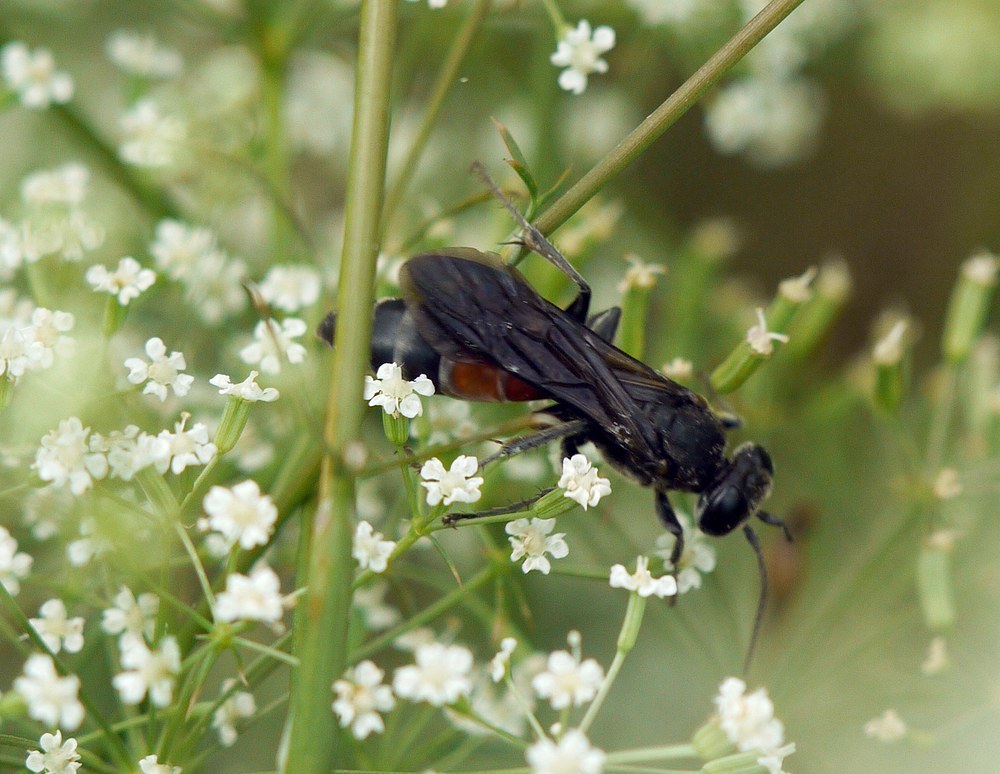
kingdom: Animalia
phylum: Arthropoda
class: Insecta
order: Hymenoptera
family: Crabronidae
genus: Larra
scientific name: Larra anathema
